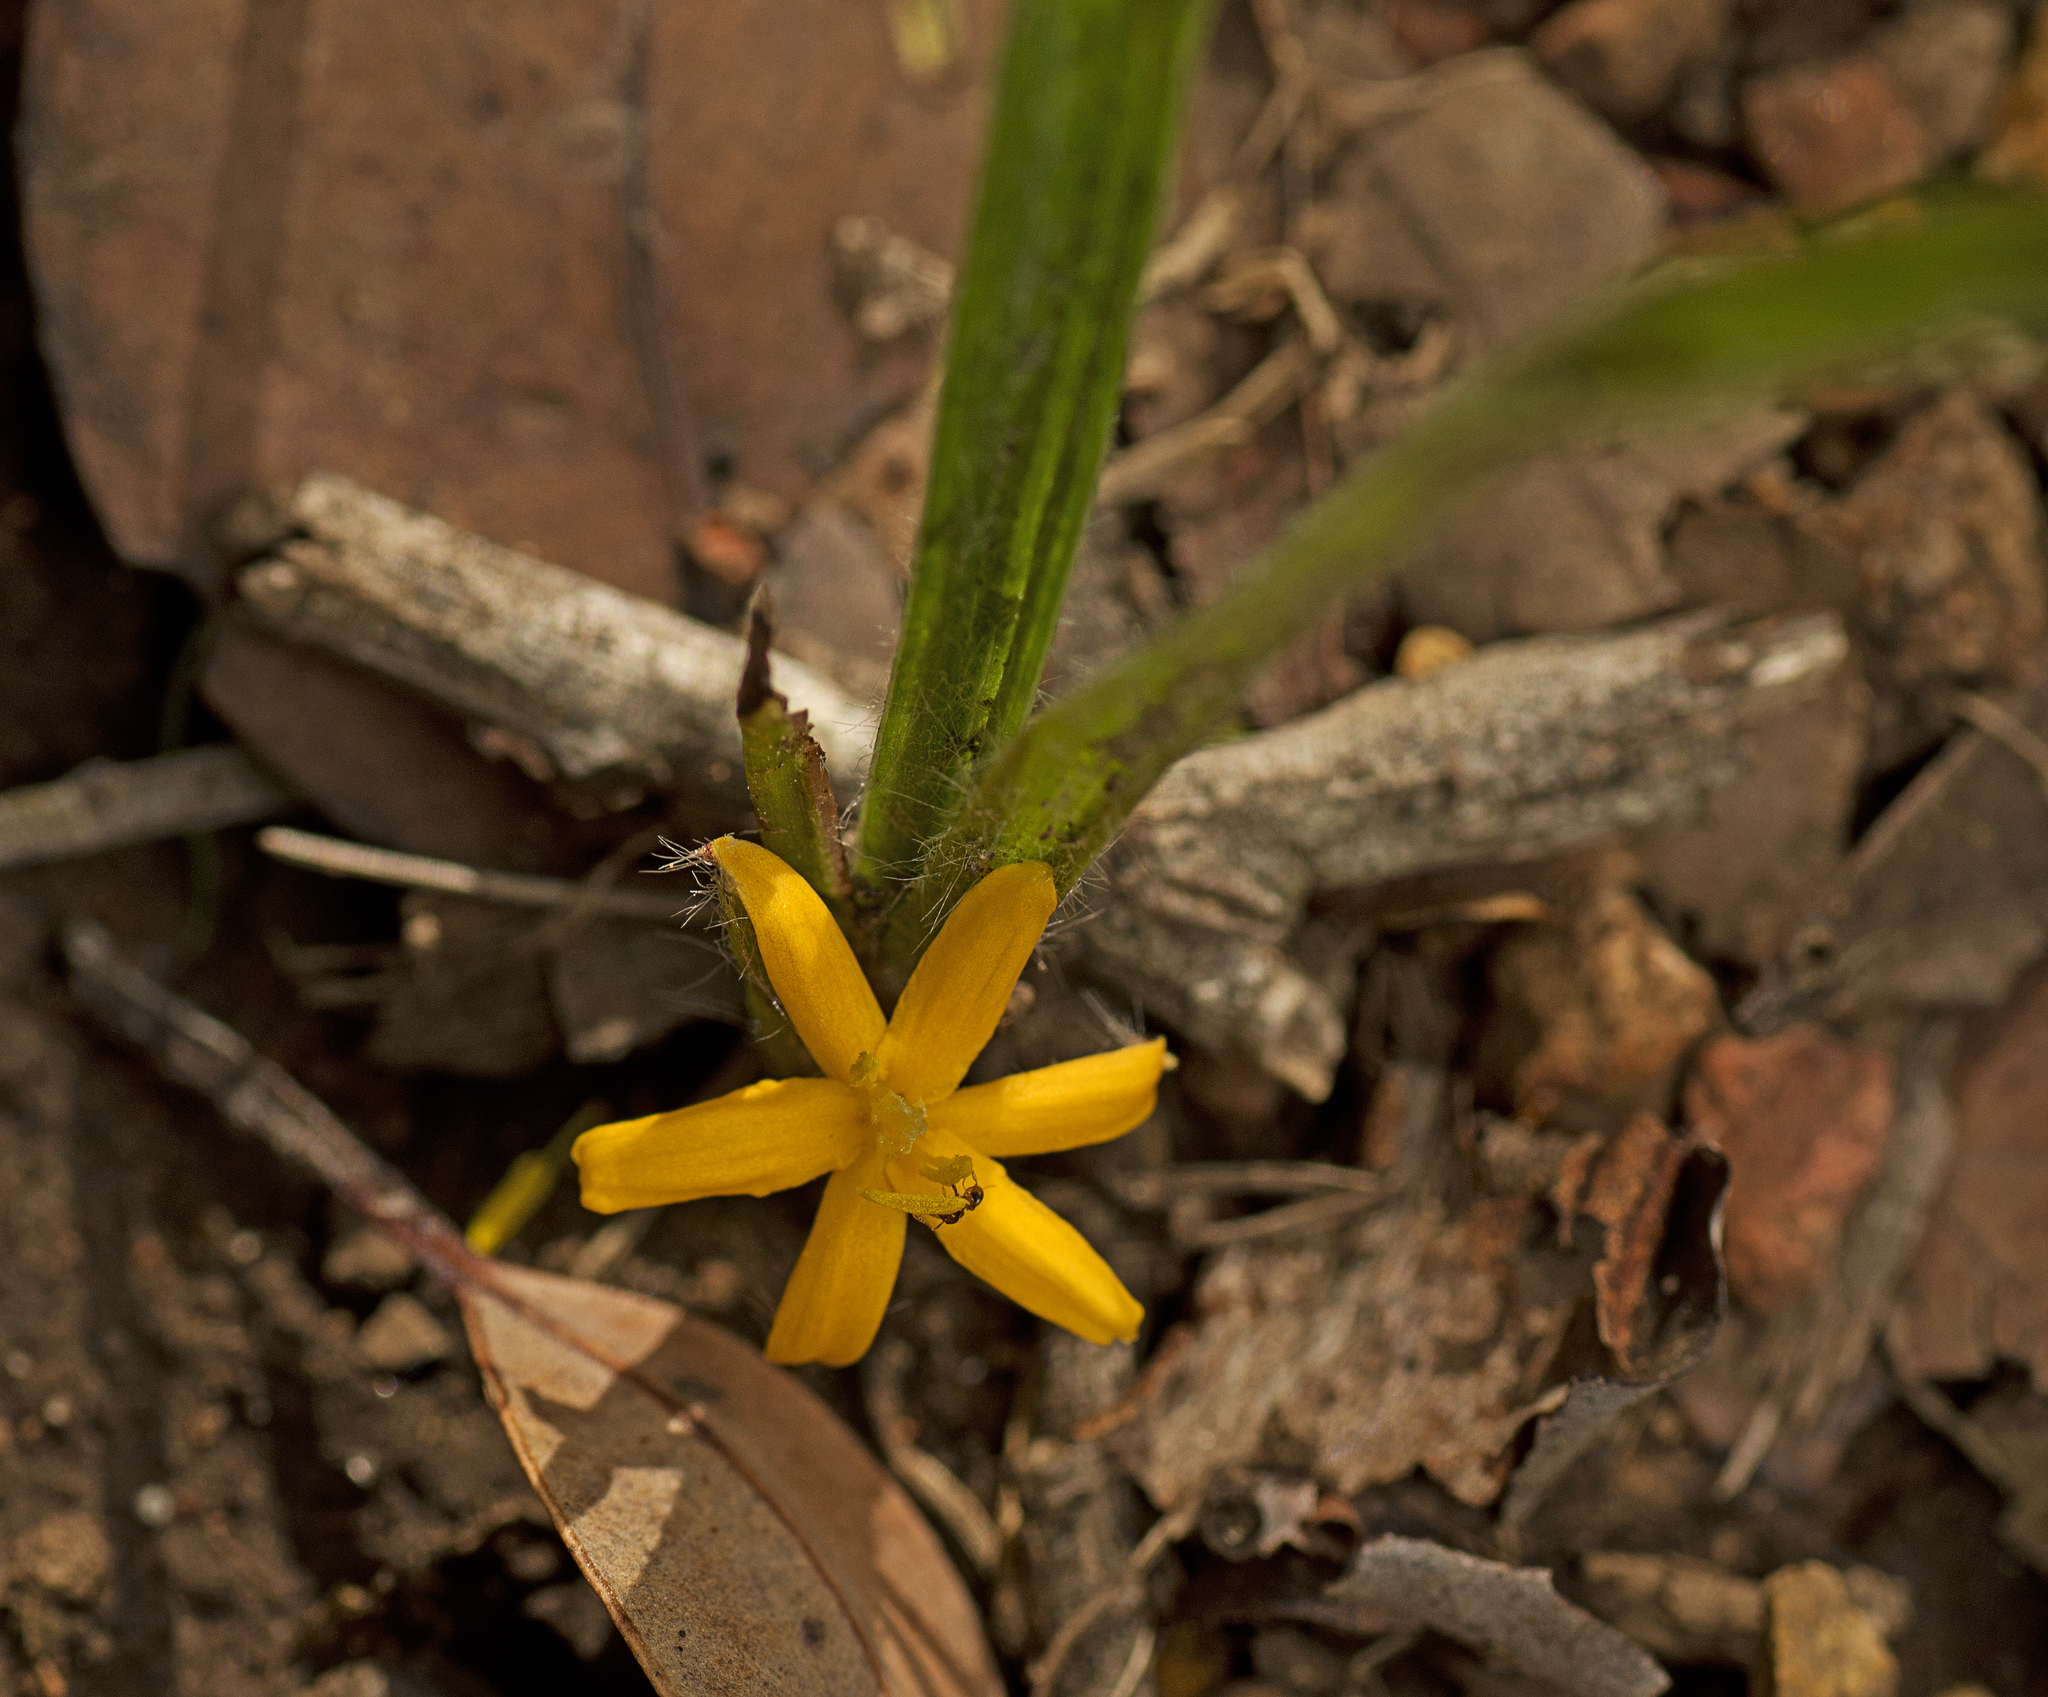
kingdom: Plantae
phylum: Tracheophyta
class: Liliopsida
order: Asparagales
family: Hypoxidaceae
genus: Curculigo
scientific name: Curculigo ensifolia
